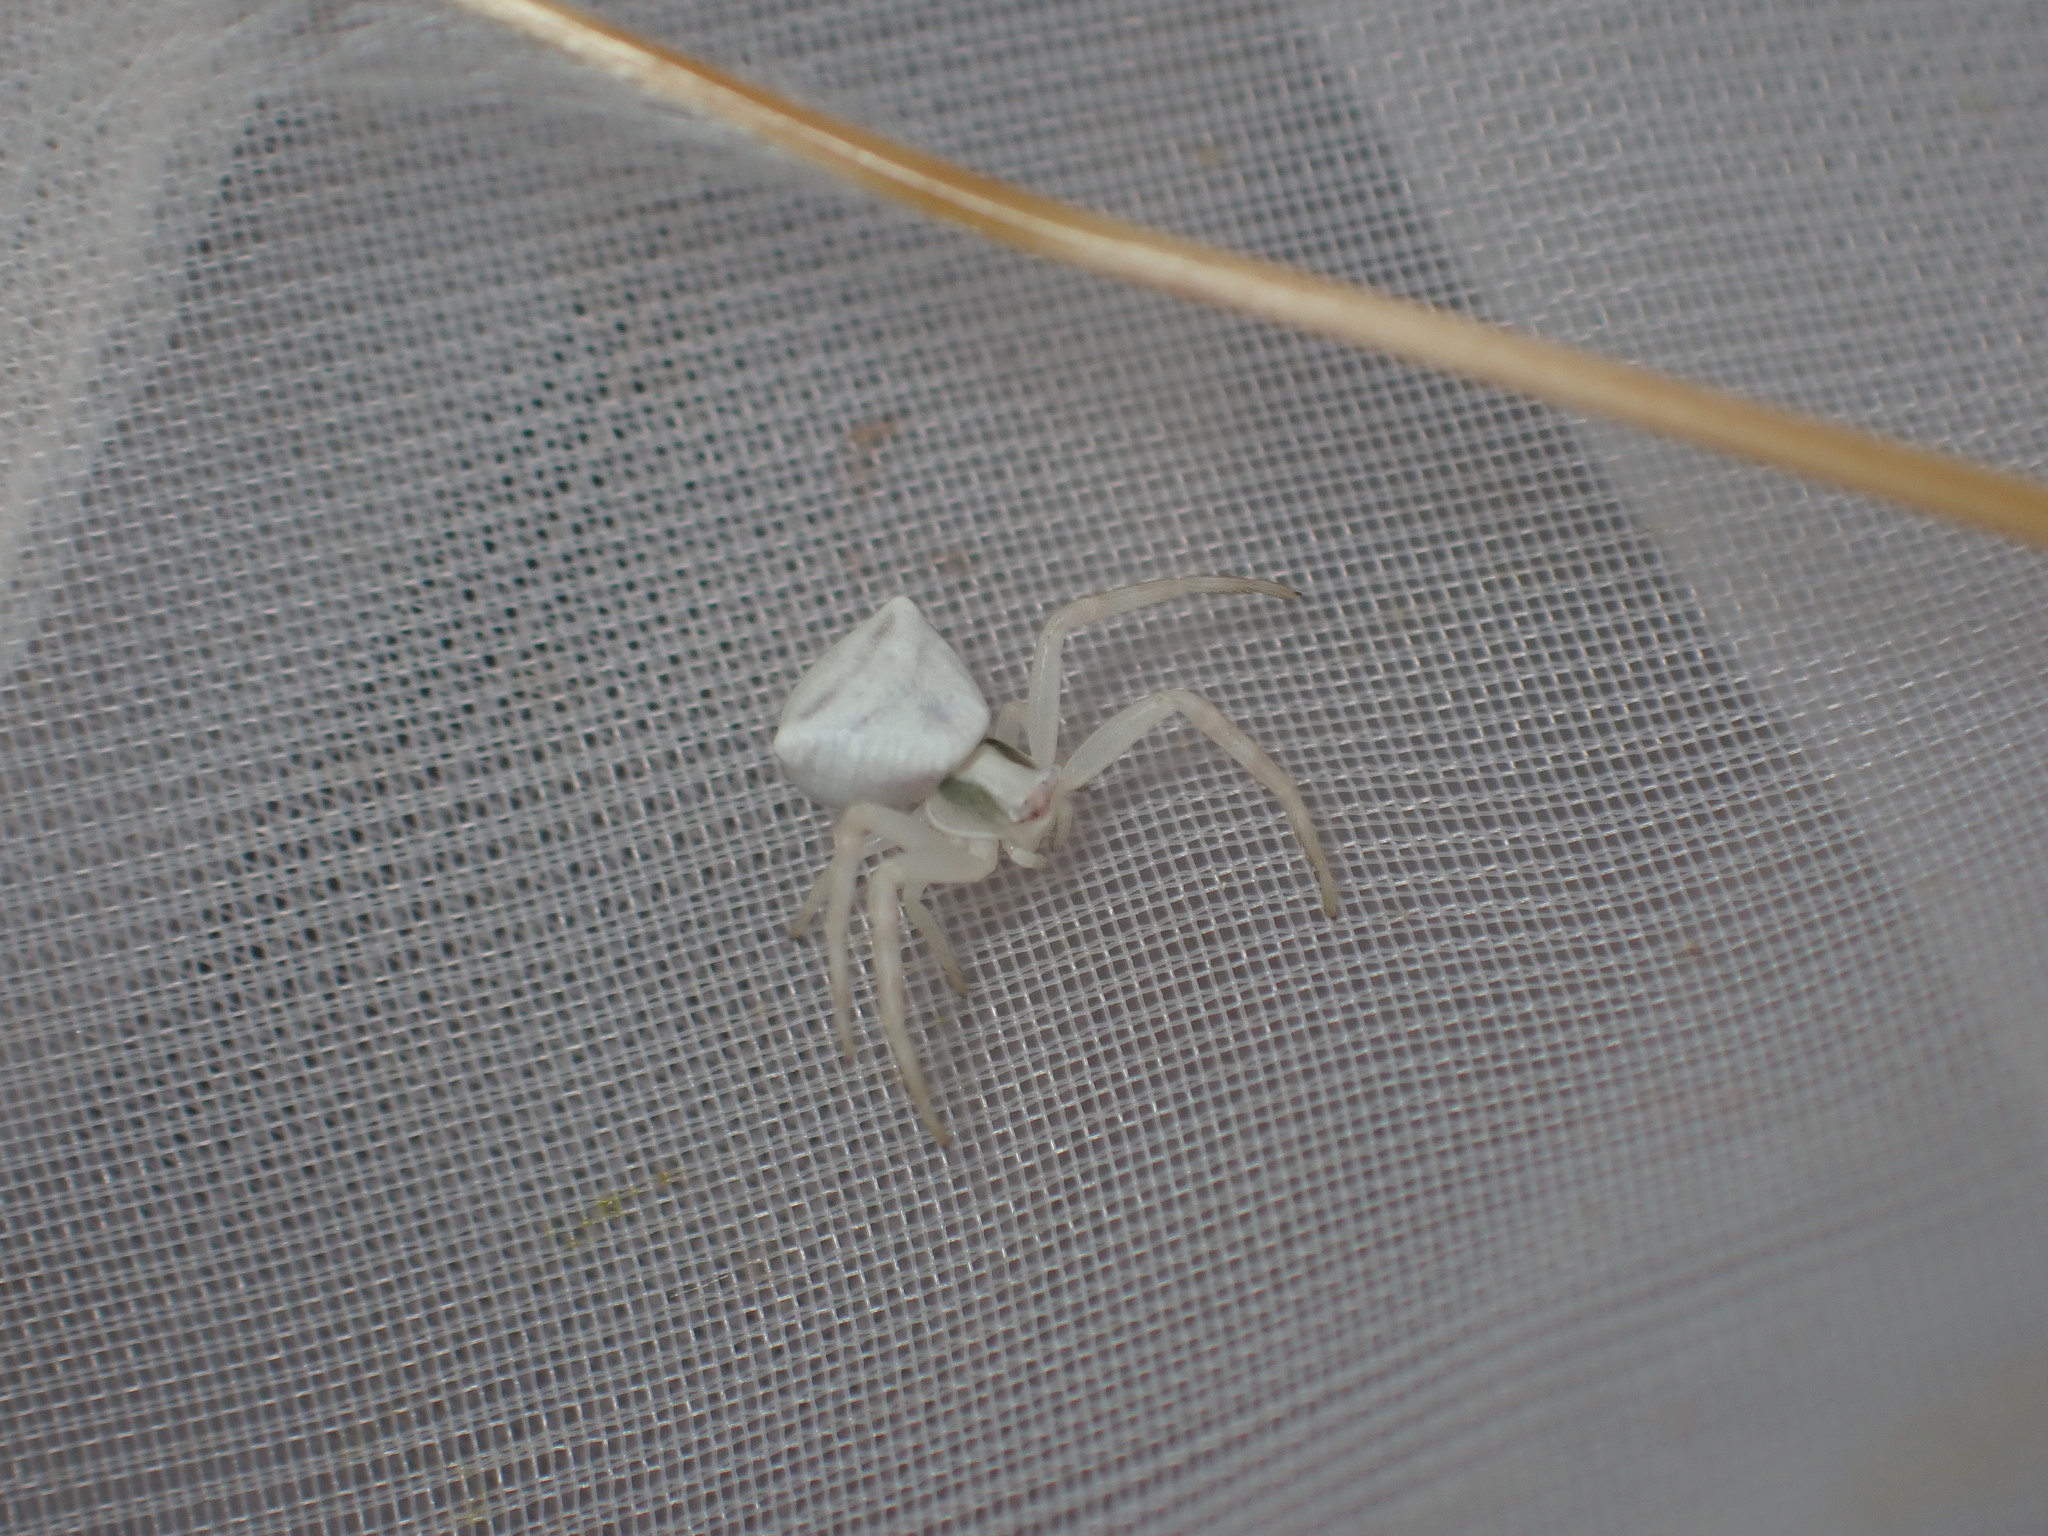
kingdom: Animalia
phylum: Arthropoda
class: Arachnida
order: Araneae
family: Thomisidae
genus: Thomisus
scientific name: Thomisus onustus
